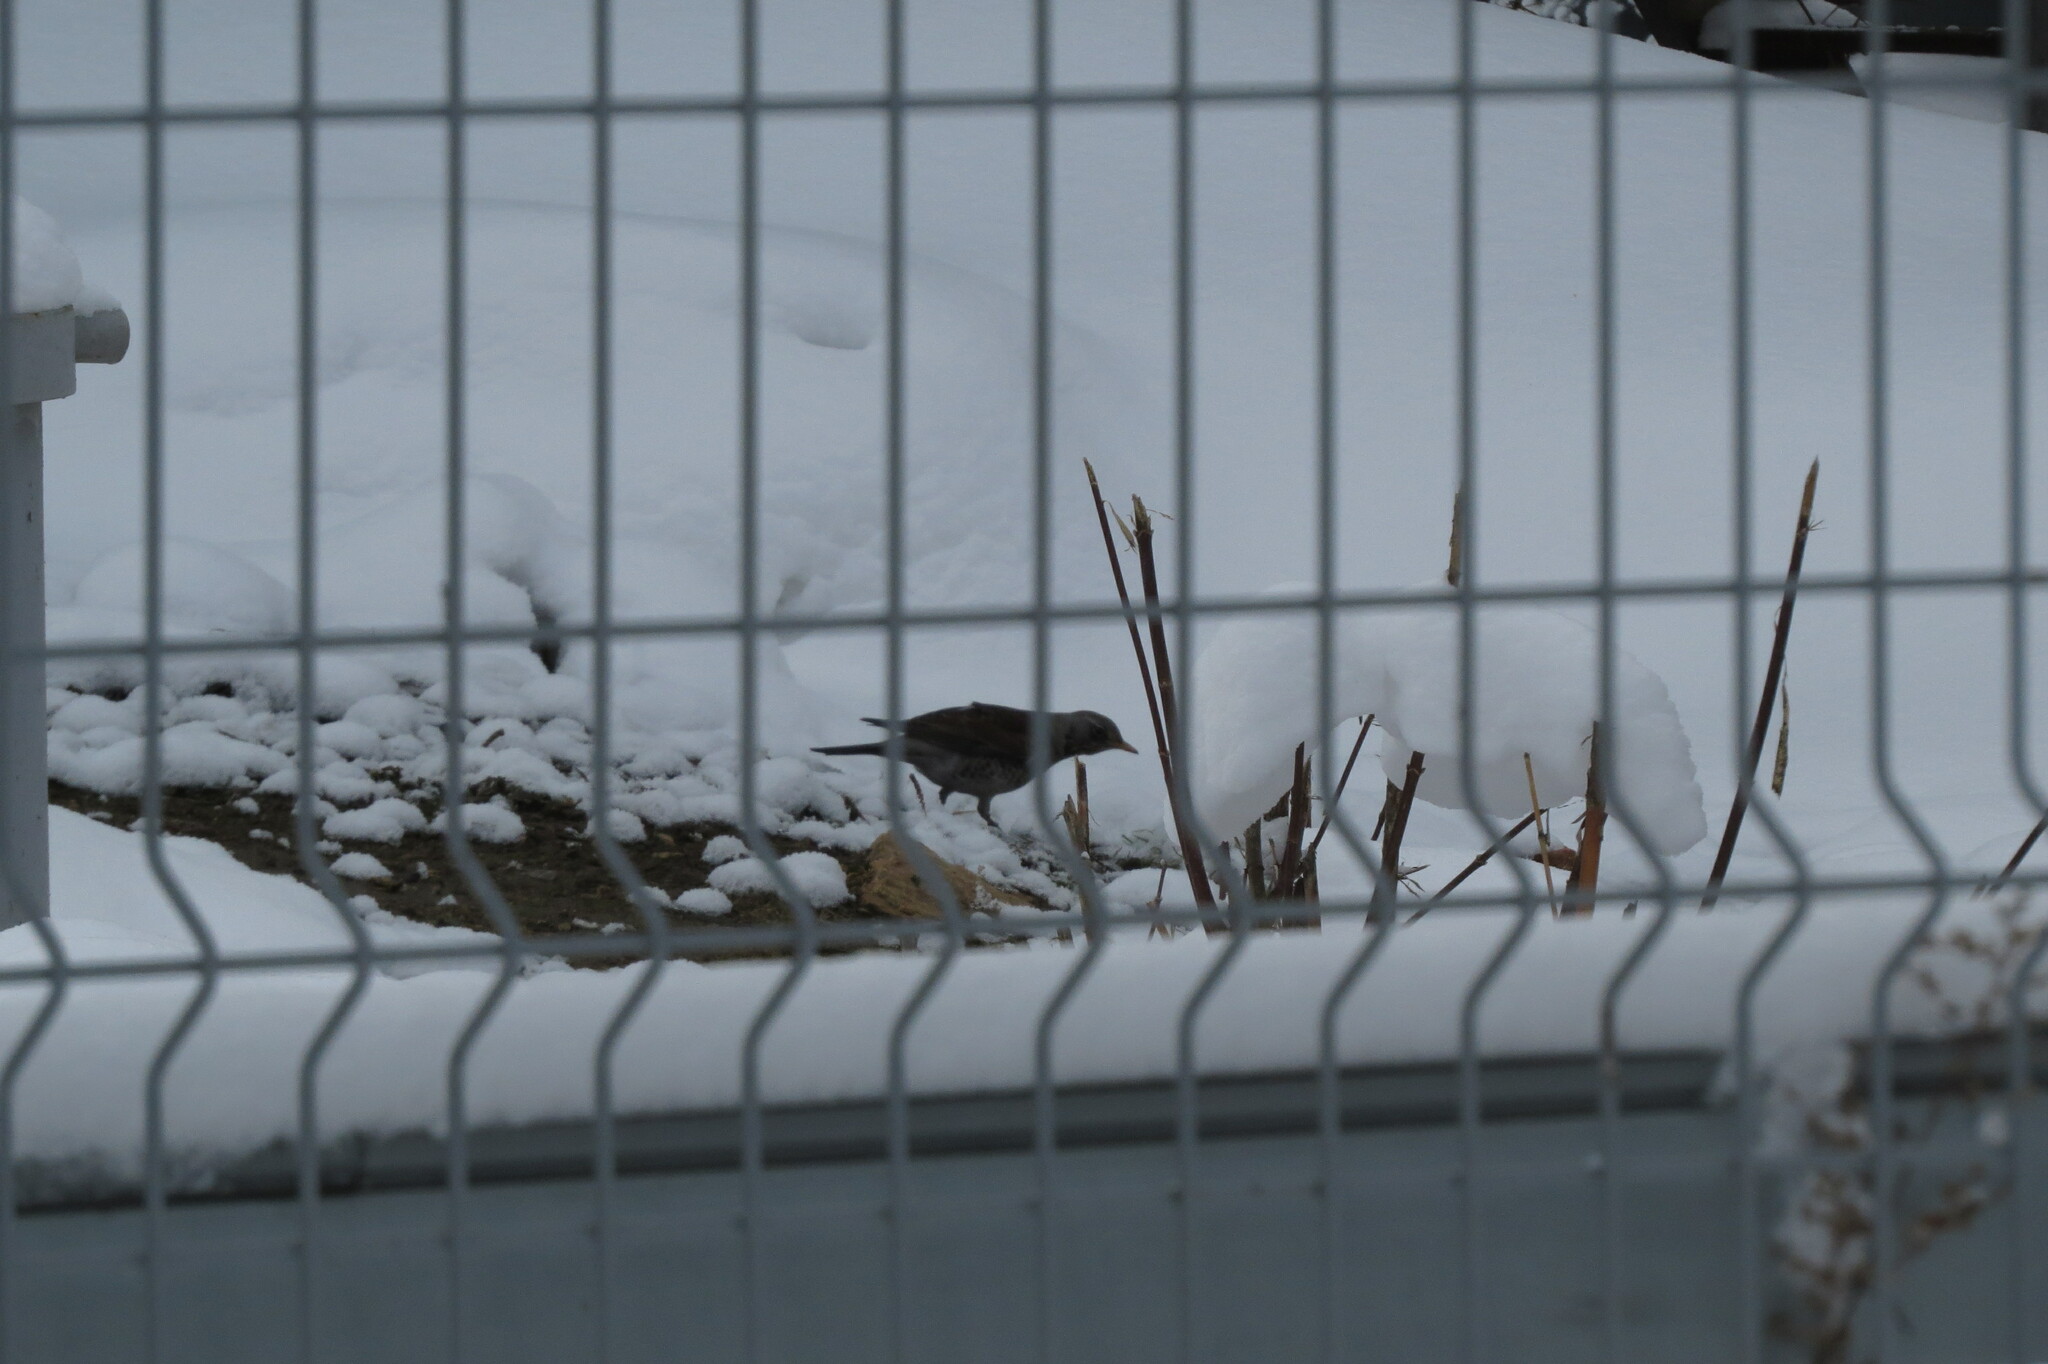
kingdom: Animalia
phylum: Chordata
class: Aves
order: Passeriformes
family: Turdidae
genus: Turdus
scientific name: Turdus pilaris
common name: Fieldfare
